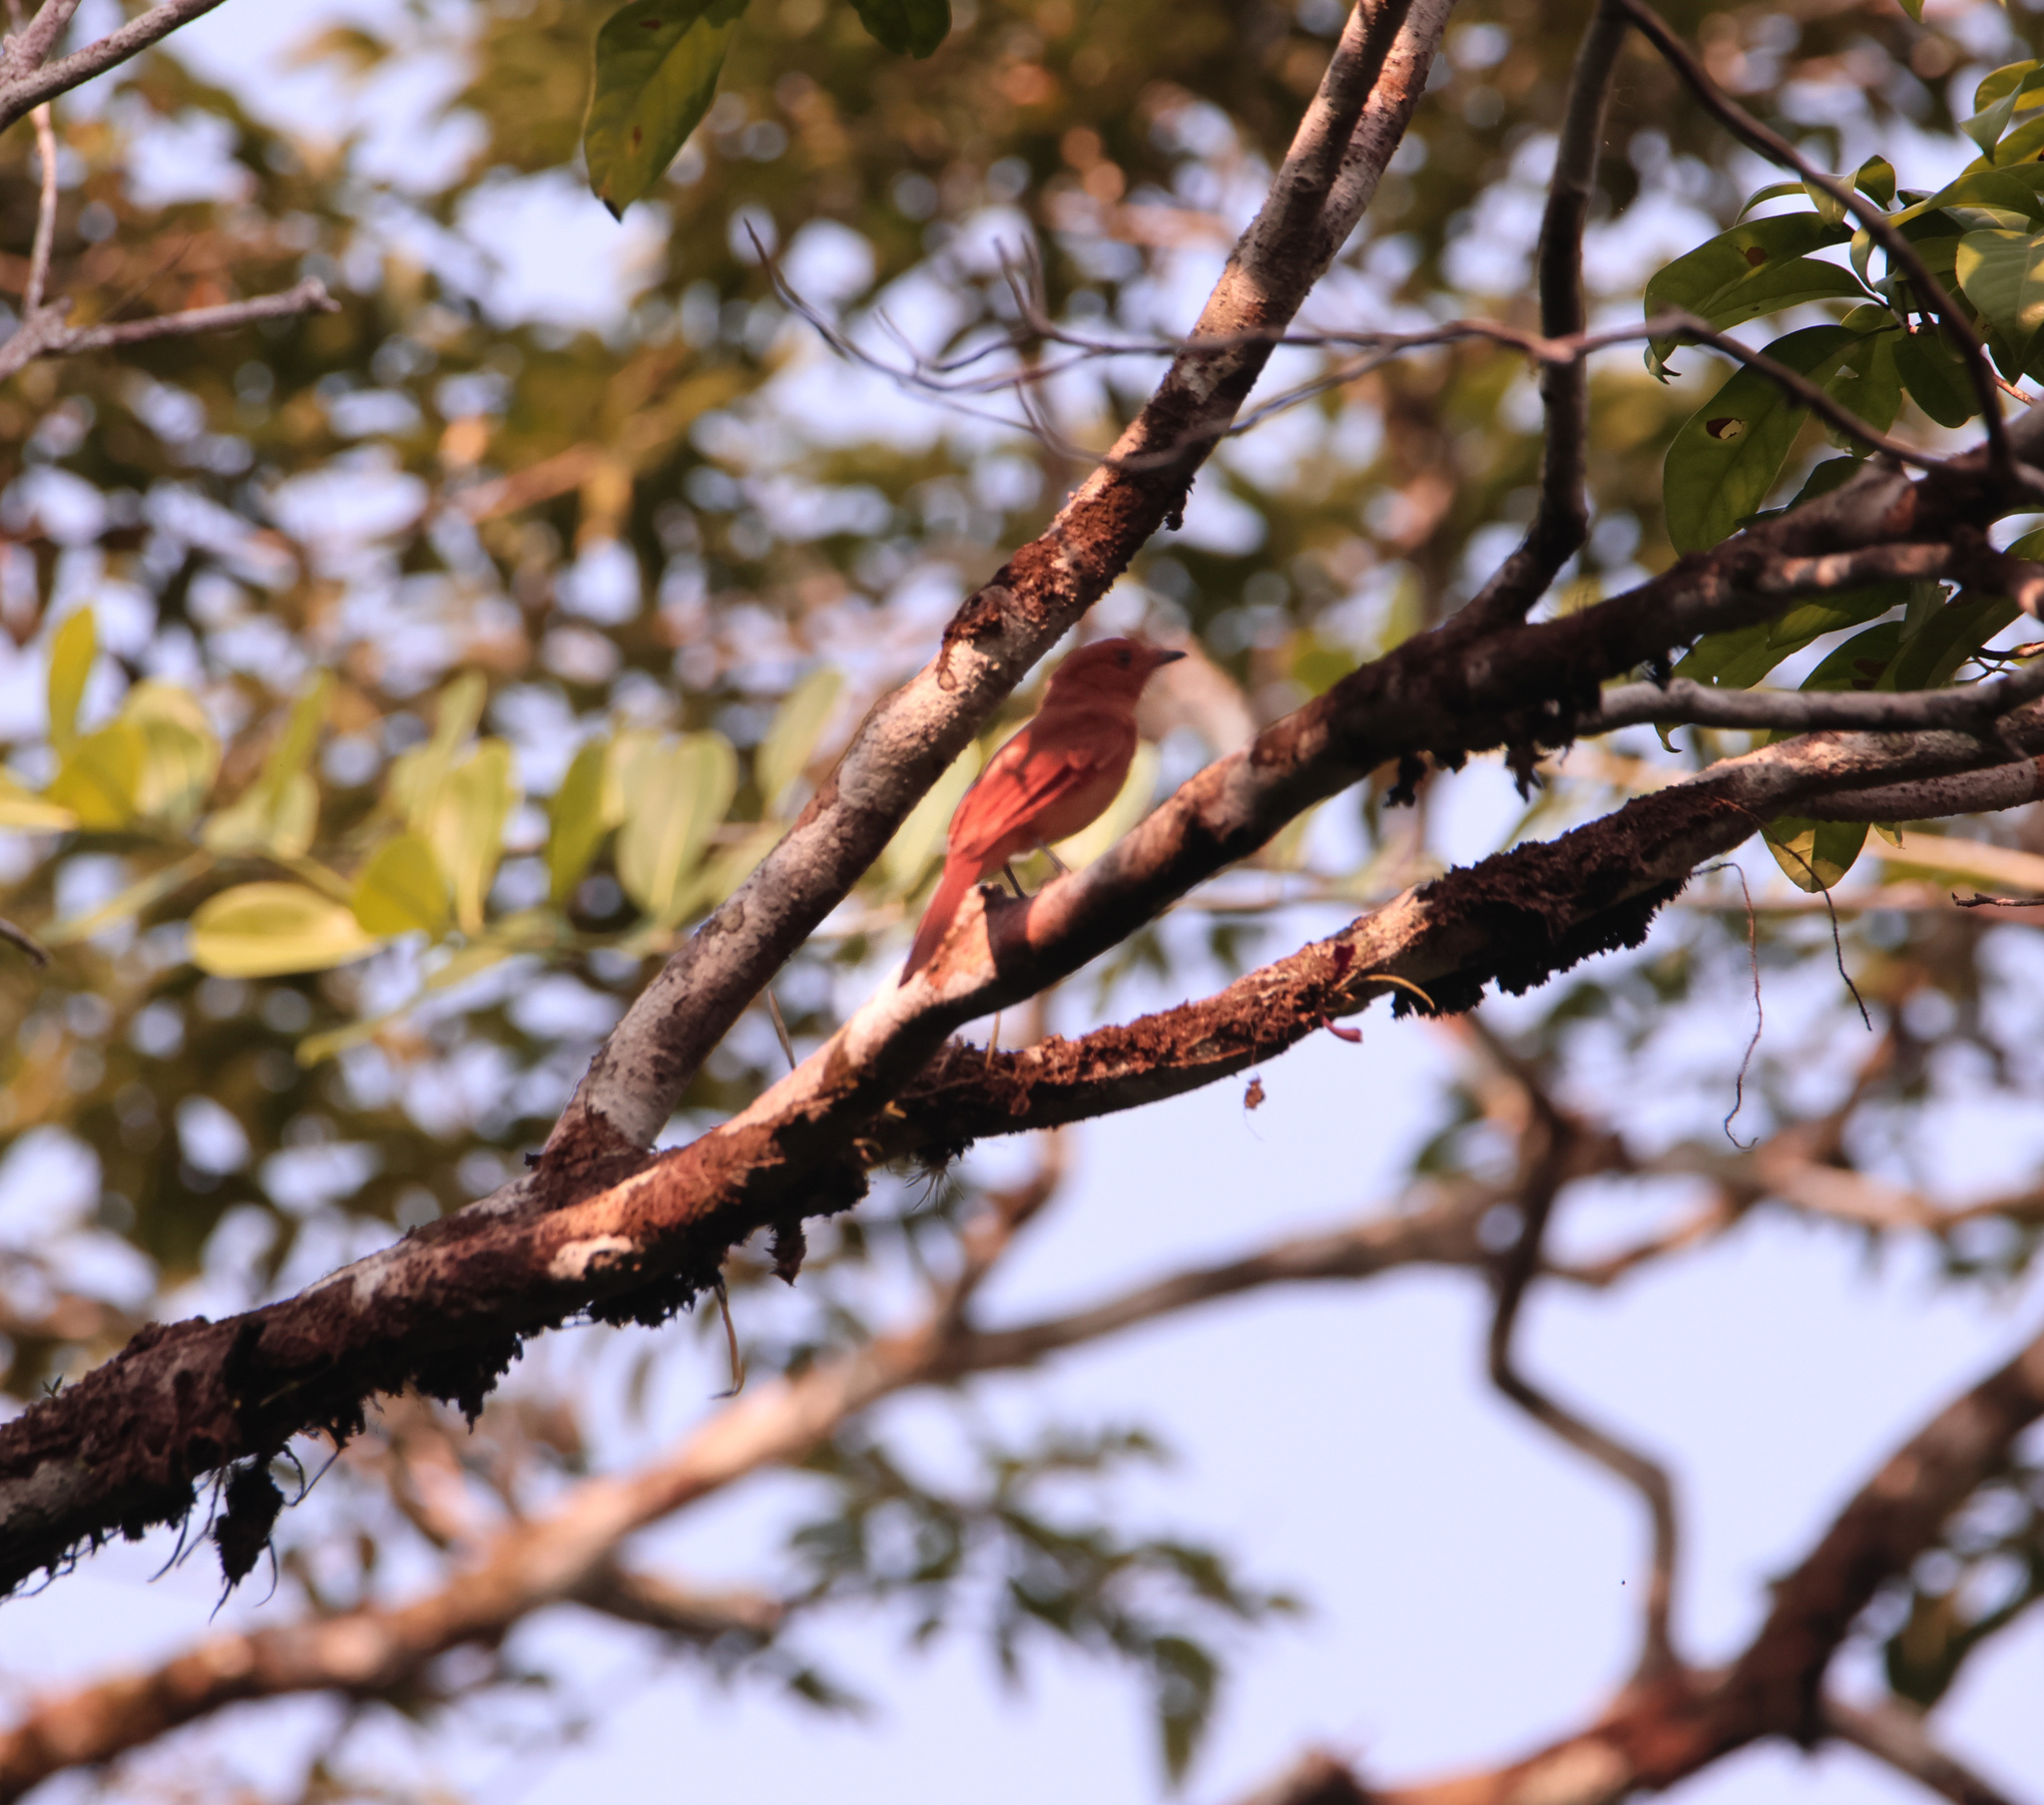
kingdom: Animalia
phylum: Chordata
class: Aves
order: Passeriformes
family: Tyrannidae
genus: Rhytipterna
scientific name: Rhytipterna holerythra
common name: Rufous mourner
